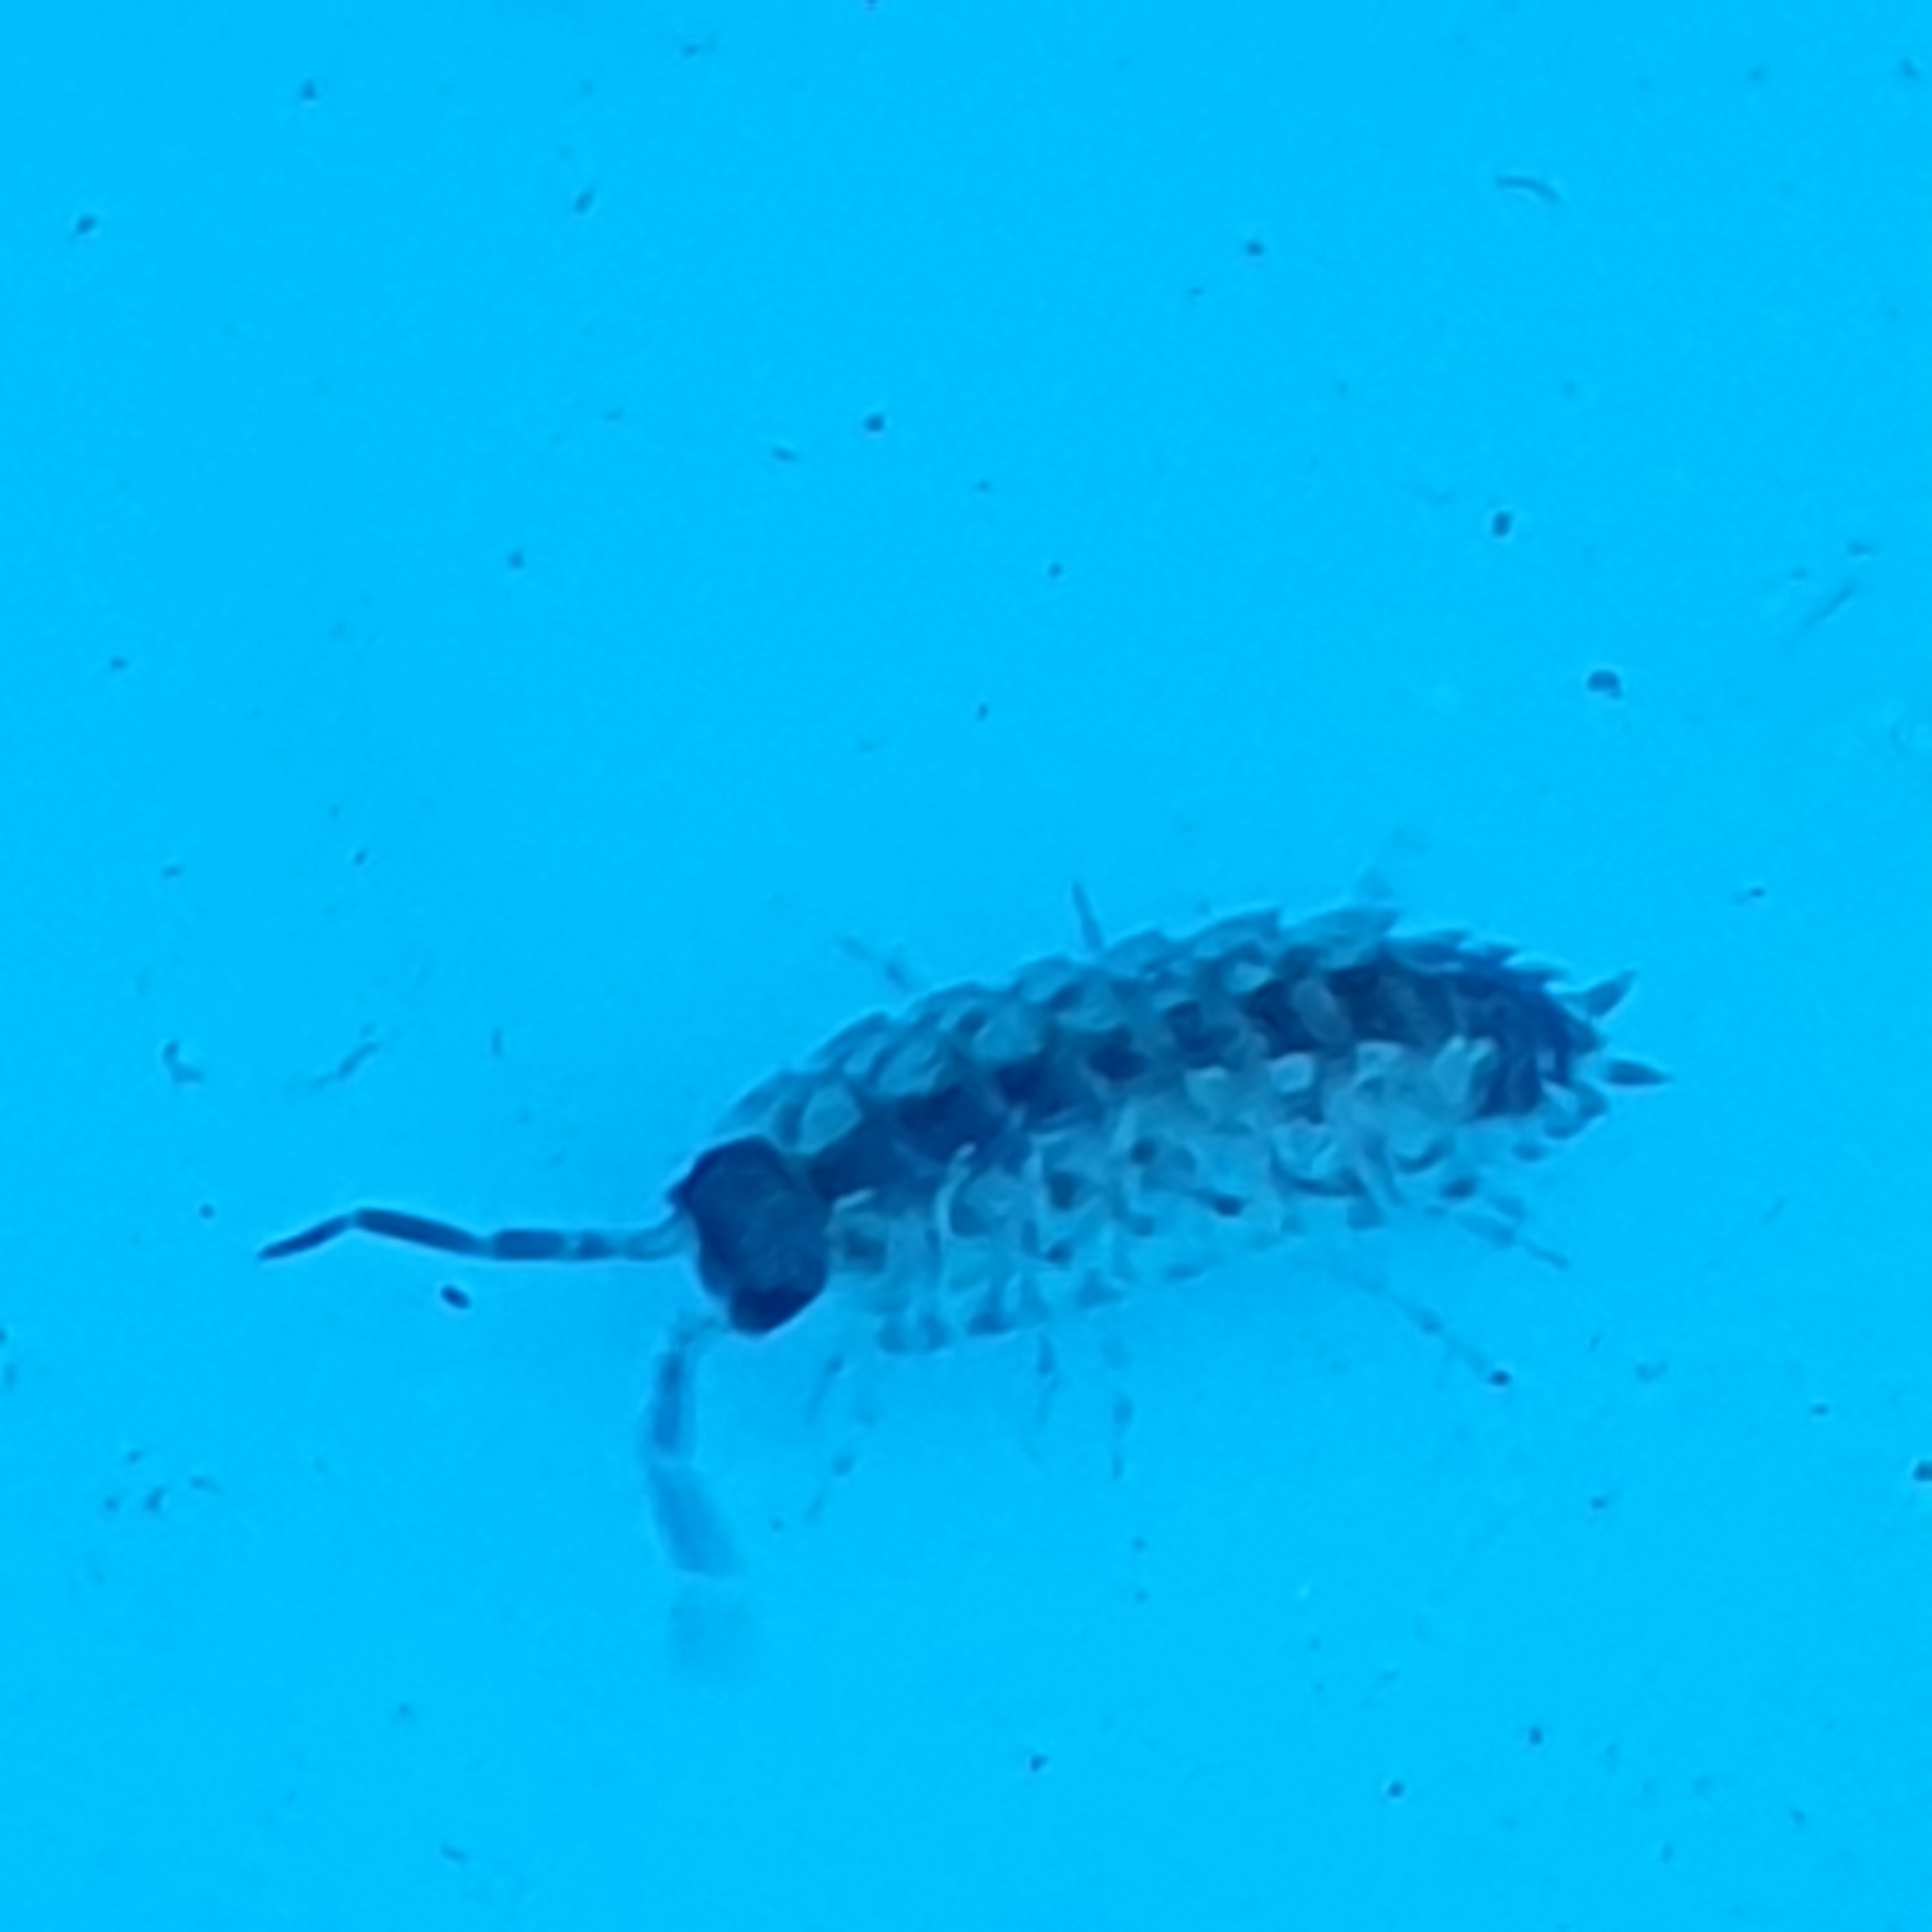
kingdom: Animalia
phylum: Arthropoda
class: Malacostraca
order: Isopoda
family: Porcellionidae
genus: Porcellio
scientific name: Porcellio spinicornis
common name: Painted woodlouse
